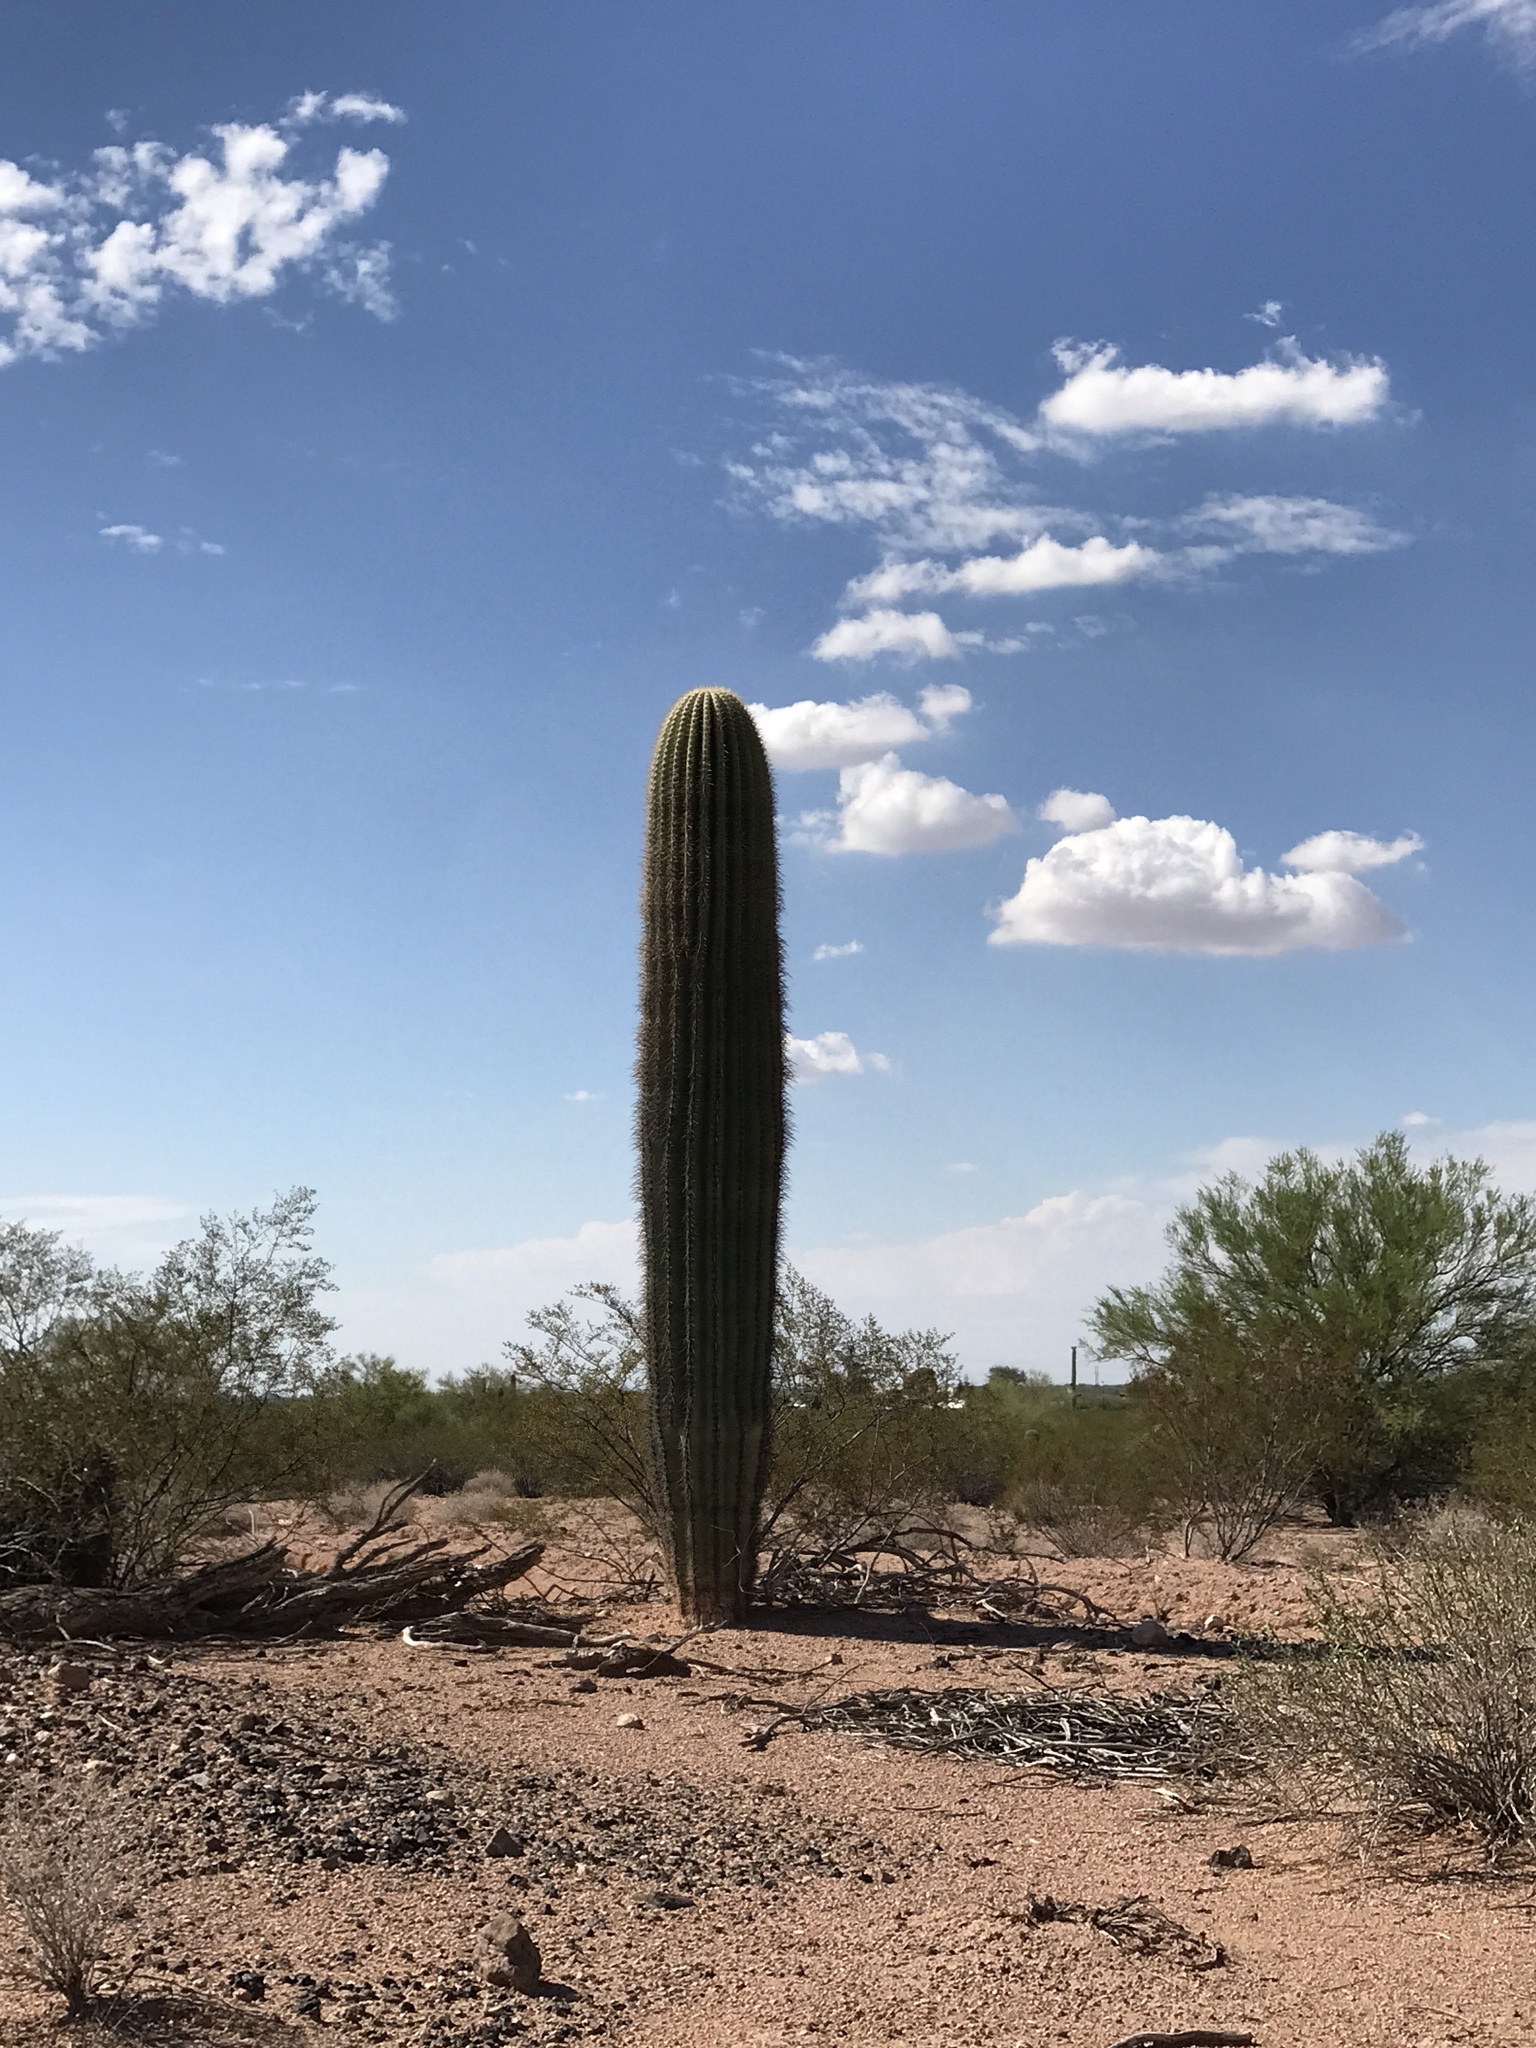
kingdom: Plantae
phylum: Tracheophyta
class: Magnoliopsida
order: Caryophyllales
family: Cactaceae
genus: Carnegiea
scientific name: Carnegiea gigantea
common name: Saguaro
